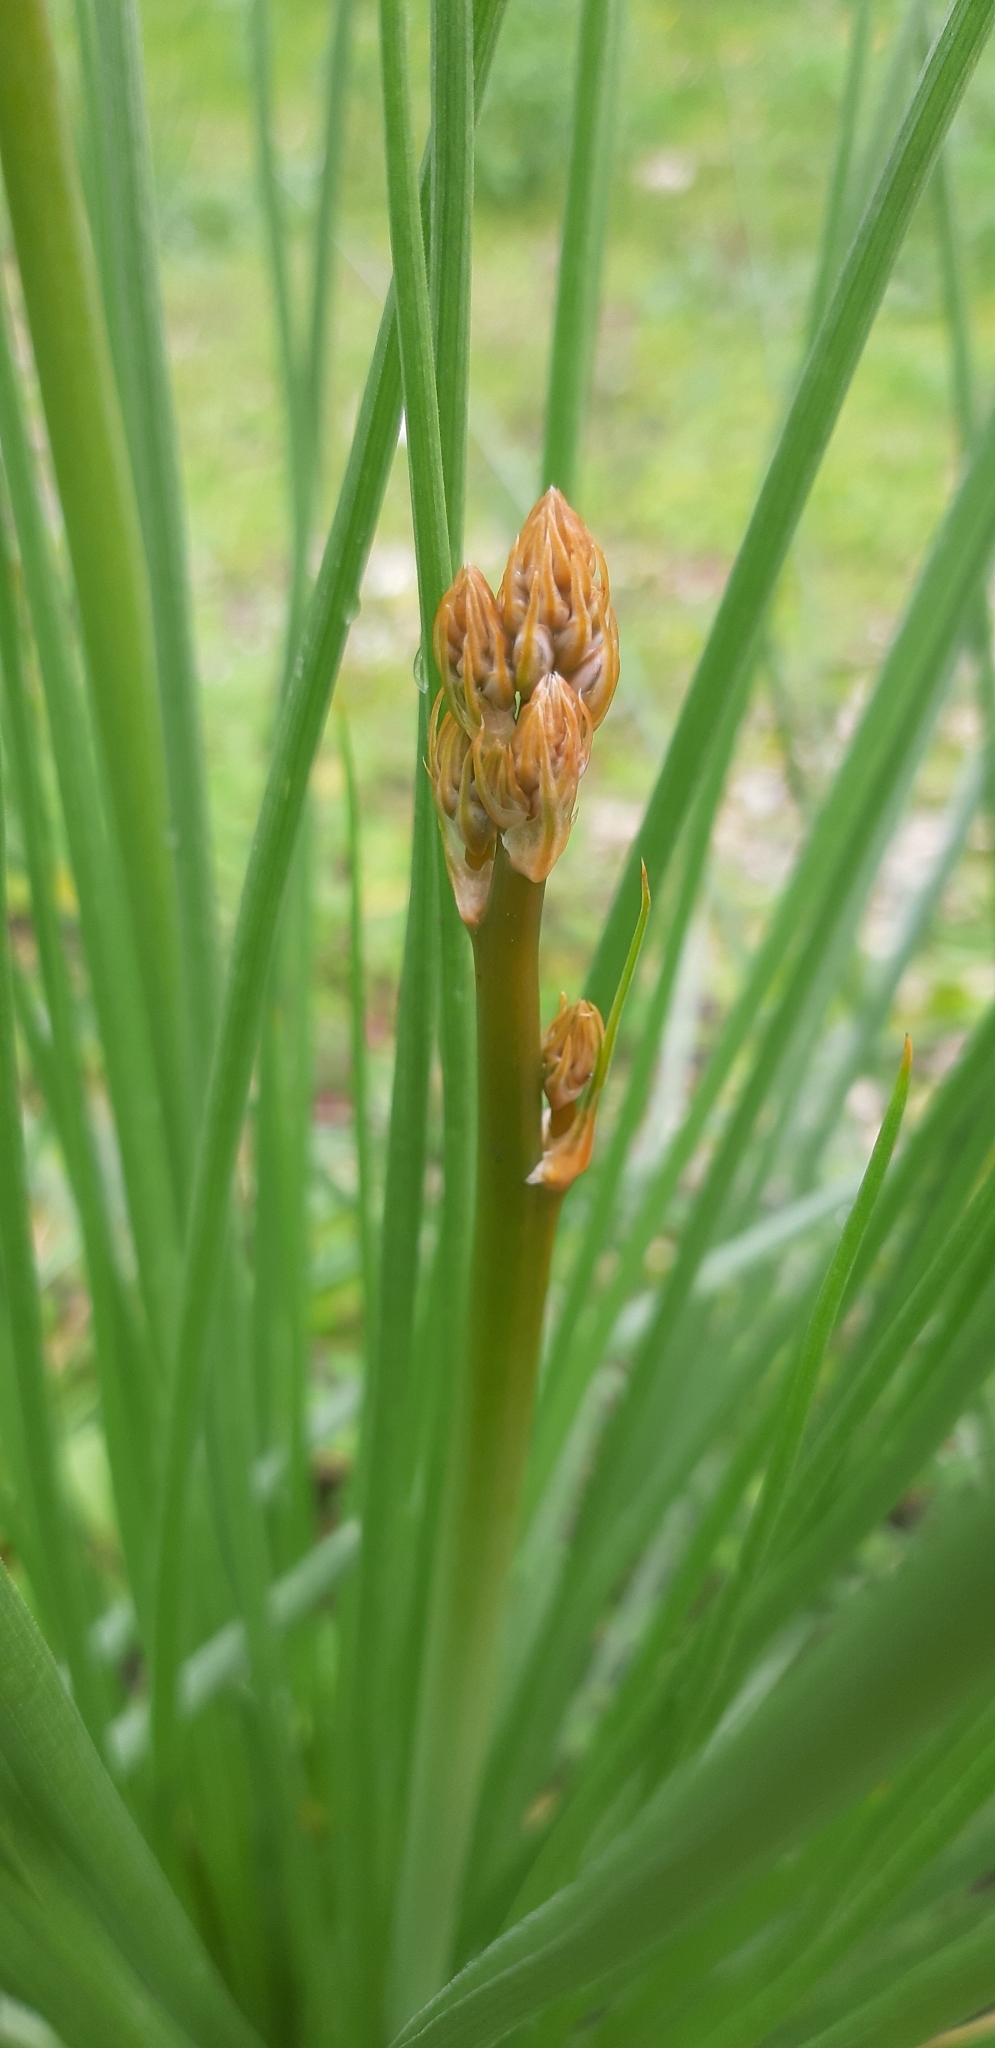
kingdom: Plantae
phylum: Tracheophyta
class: Liliopsida
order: Asparagales
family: Asphodelaceae
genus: Asphodelus
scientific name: Asphodelus fistulosus
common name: Onionweed
